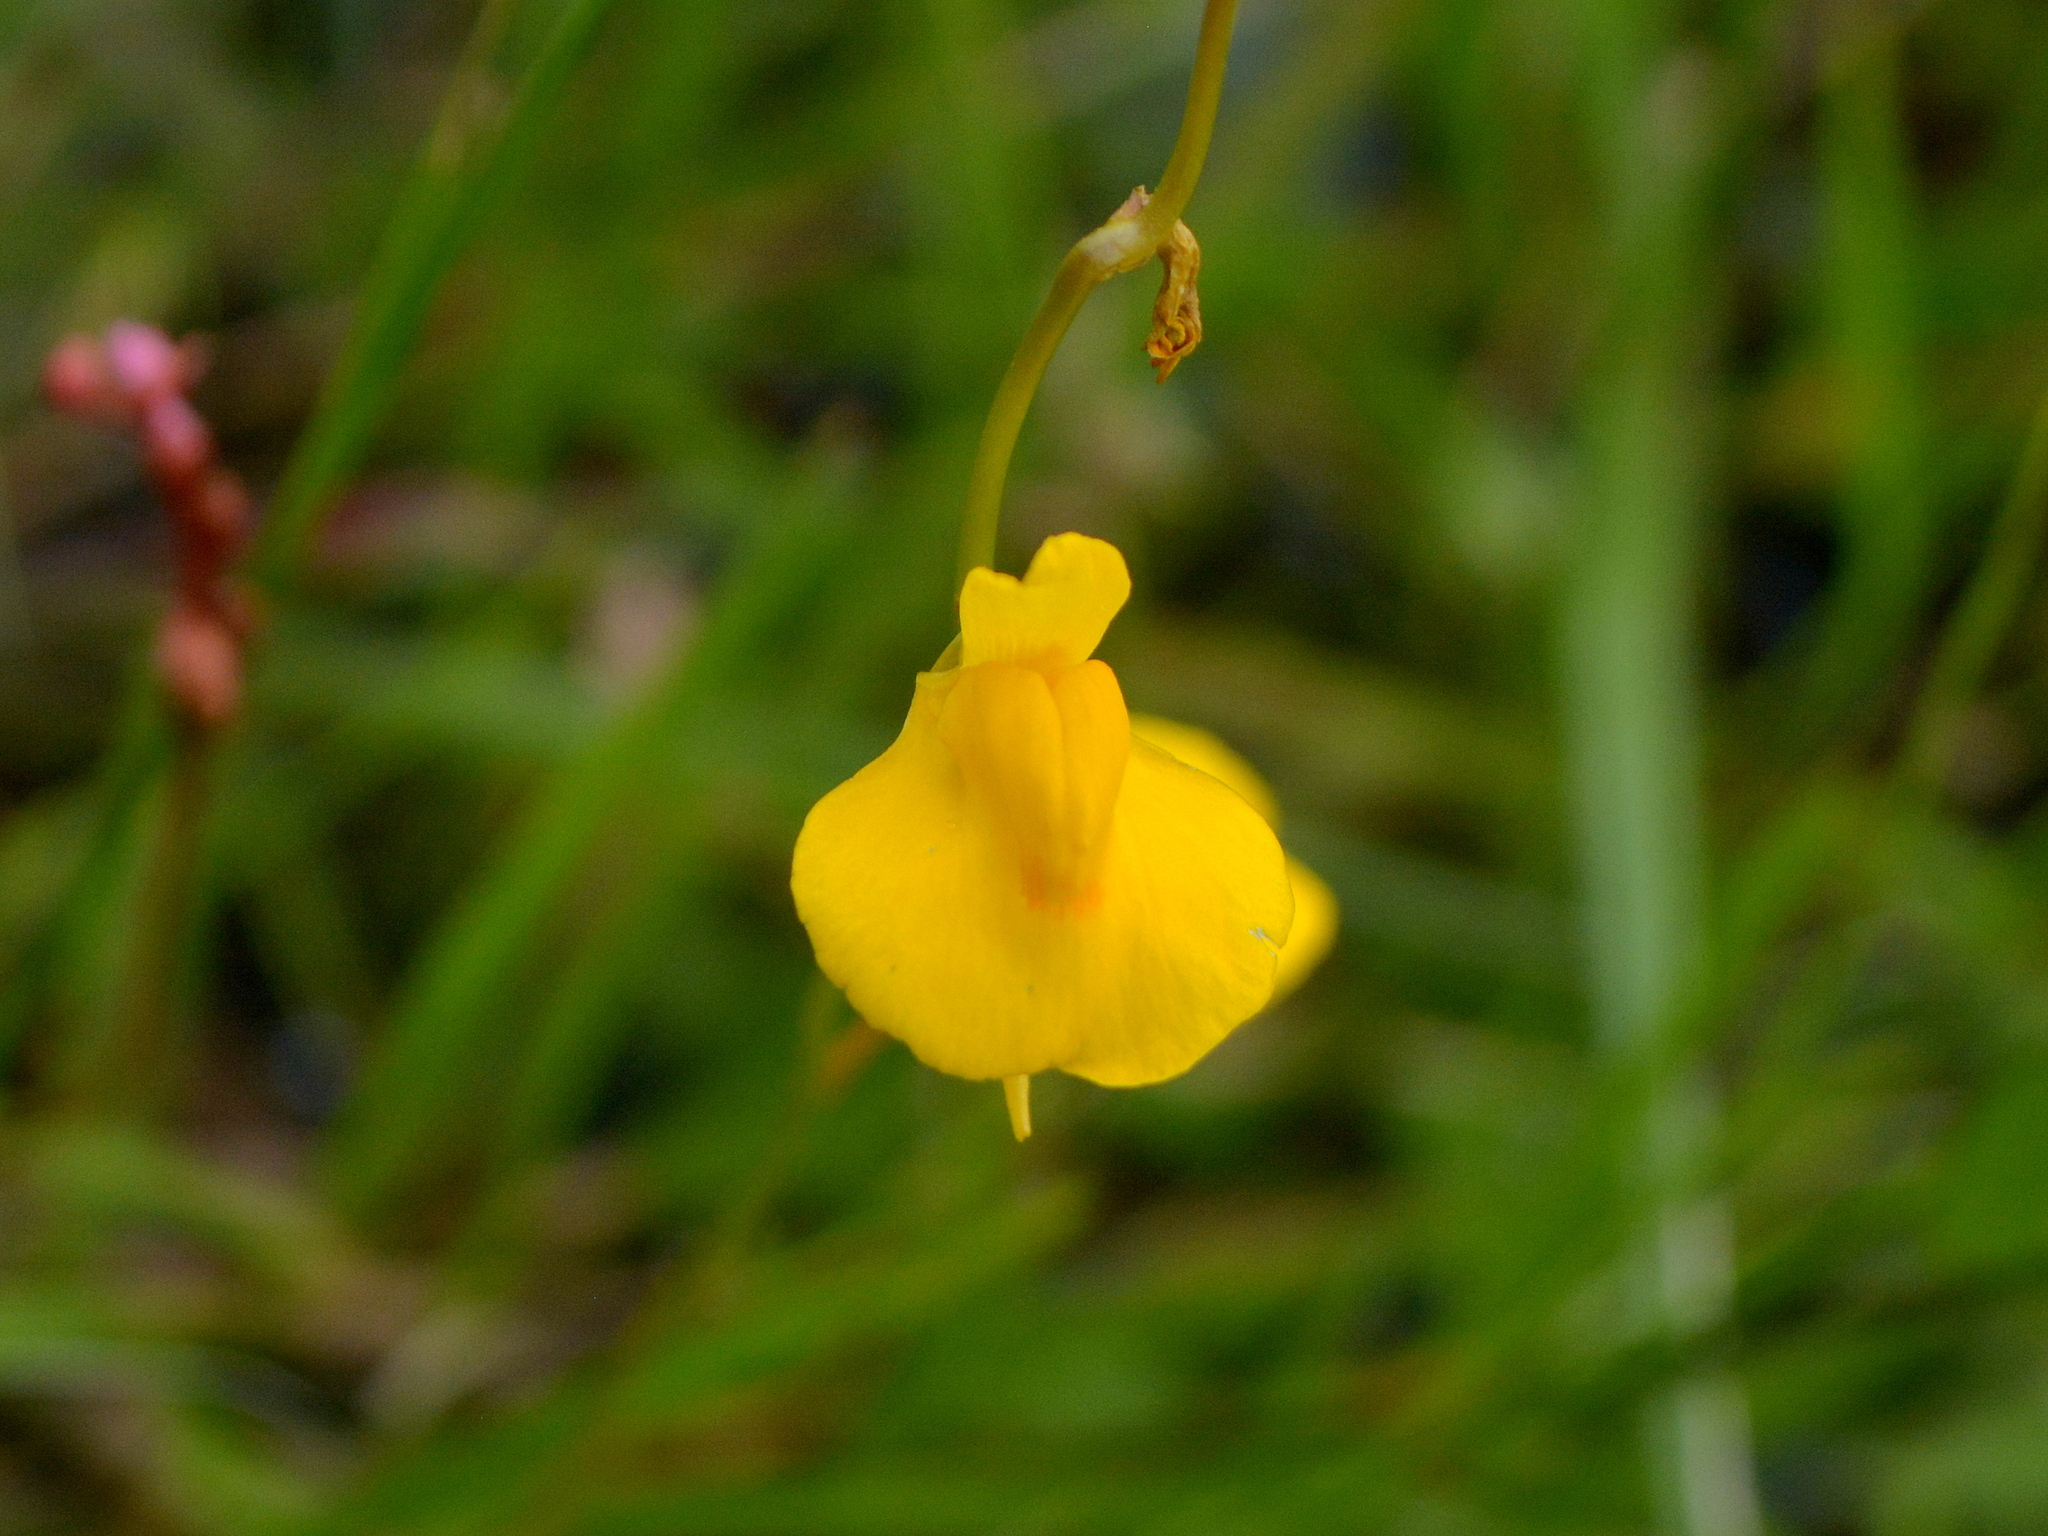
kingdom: Plantae
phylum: Tracheophyta
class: Magnoliopsida
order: Lamiales
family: Lentibulariaceae
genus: Utricularia
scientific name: Utricularia laxa
